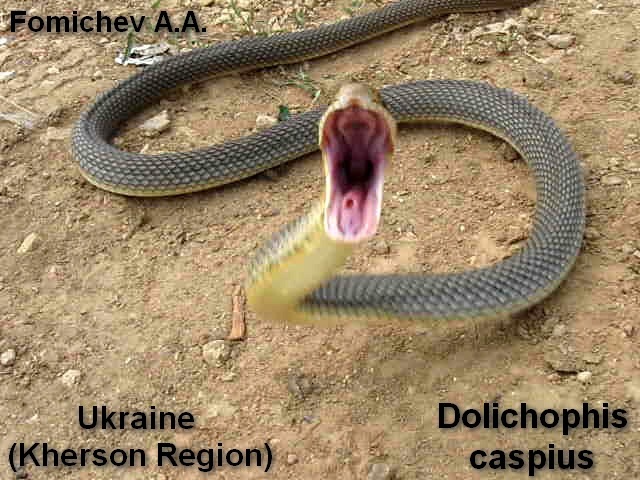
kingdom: Animalia
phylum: Chordata
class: Squamata
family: Colubridae
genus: Dolichophis
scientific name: Dolichophis caspius
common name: Large whip snake
